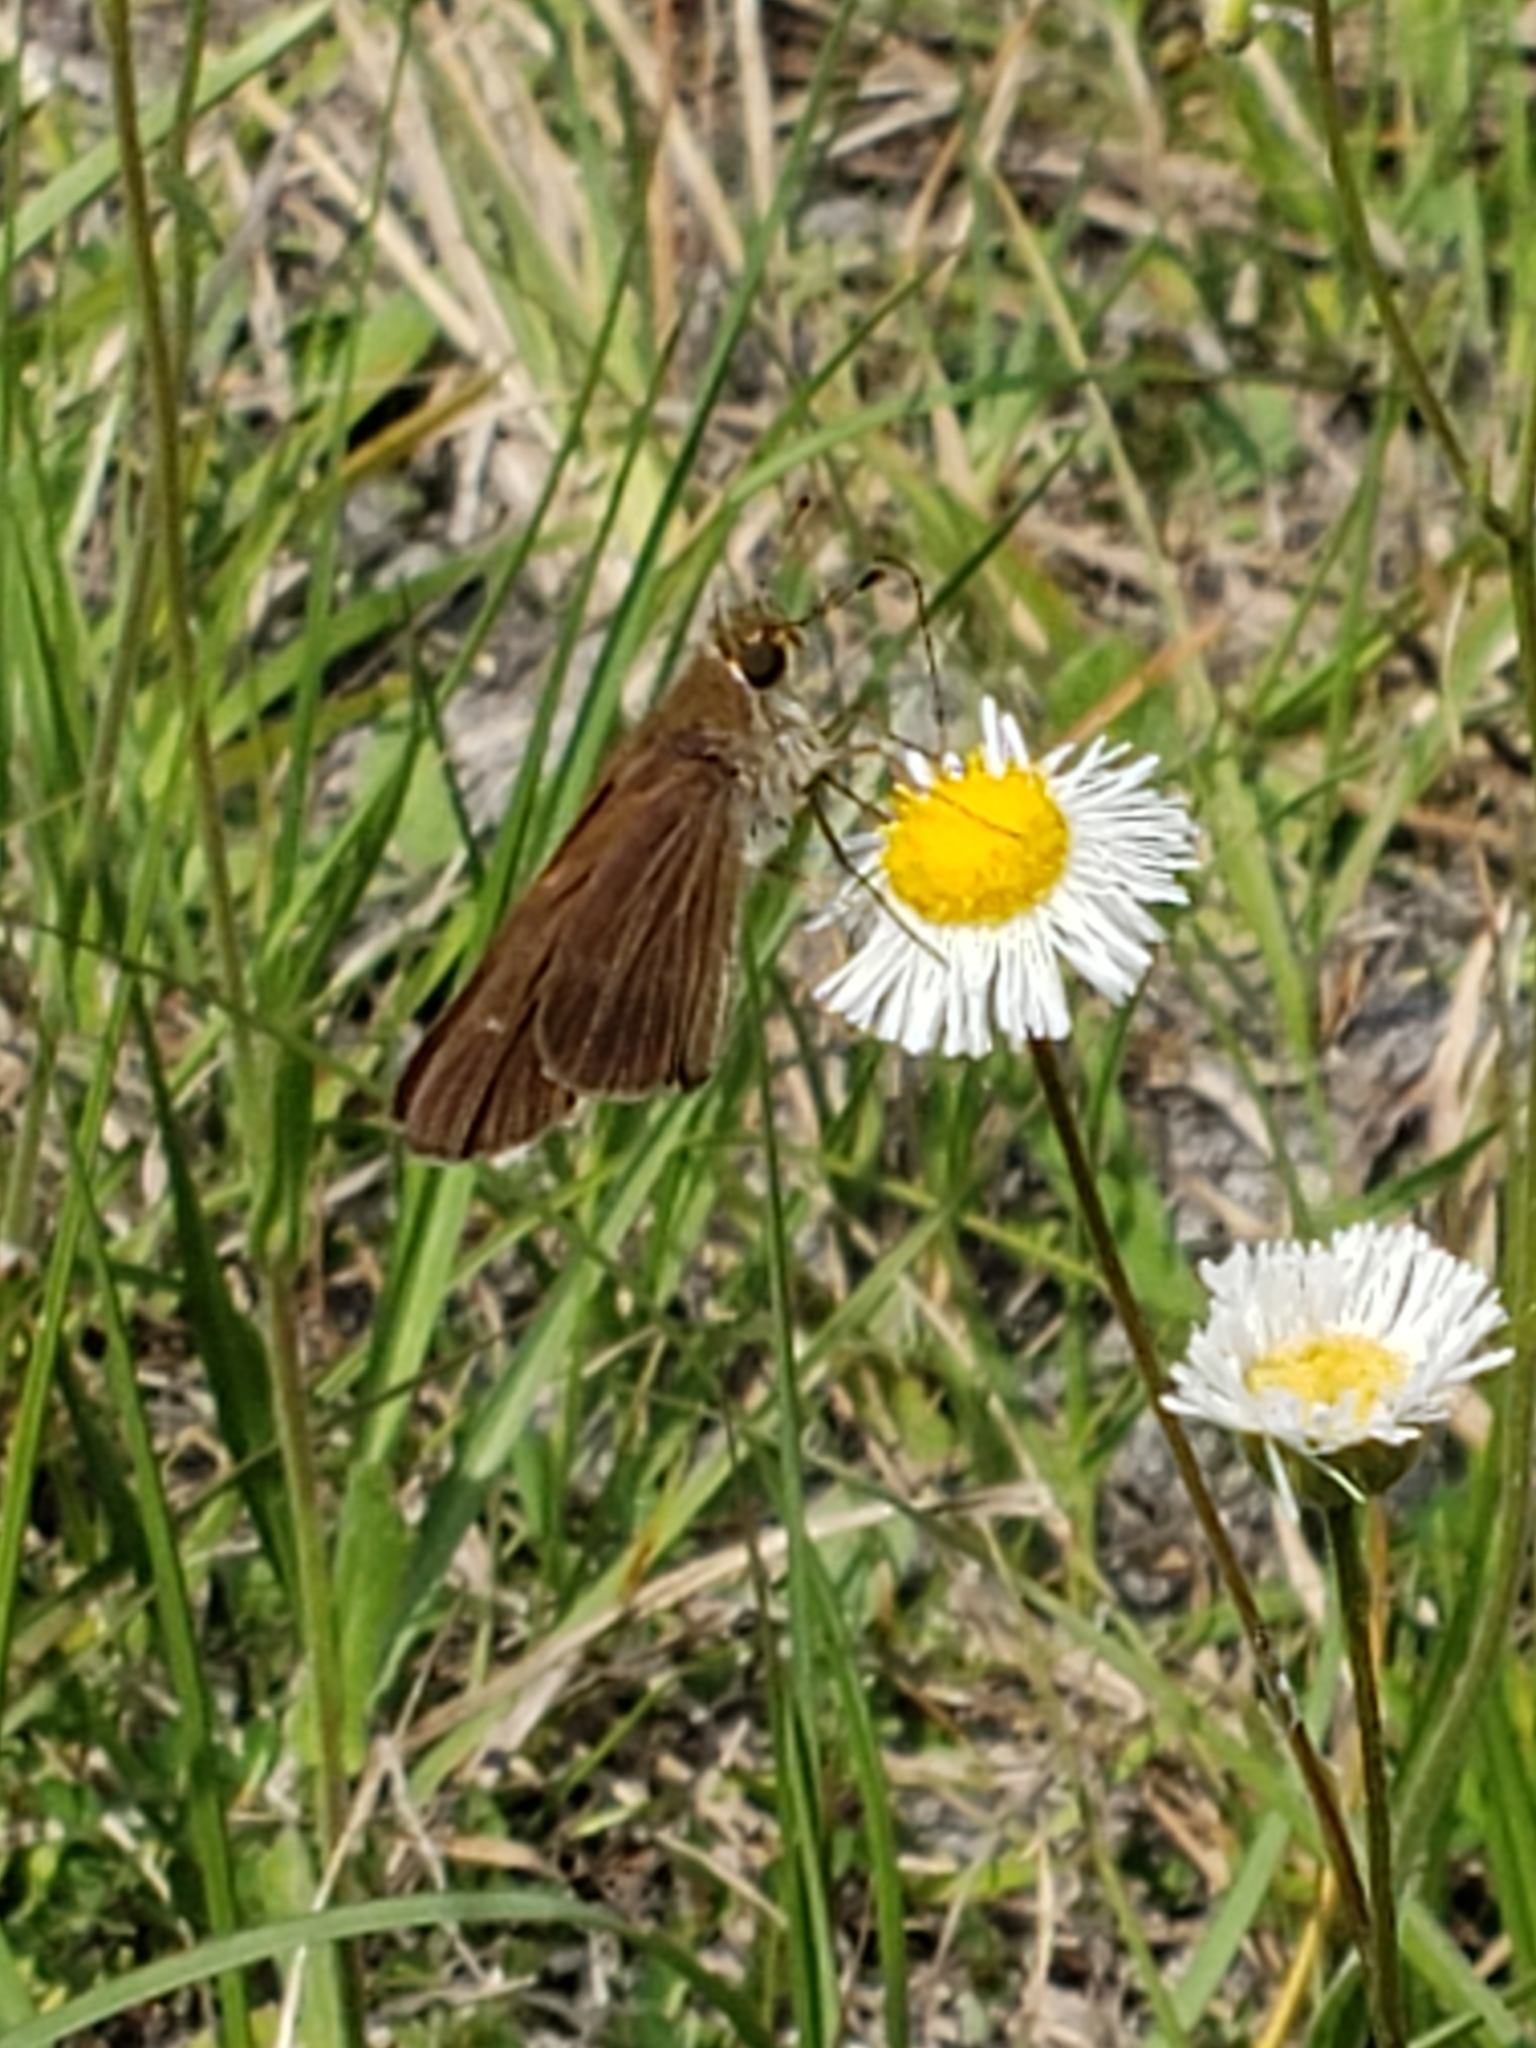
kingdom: Animalia
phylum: Arthropoda
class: Insecta
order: Lepidoptera
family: Hesperiidae
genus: Panoquina
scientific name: Panoquina ocola
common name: Ocola skipper
